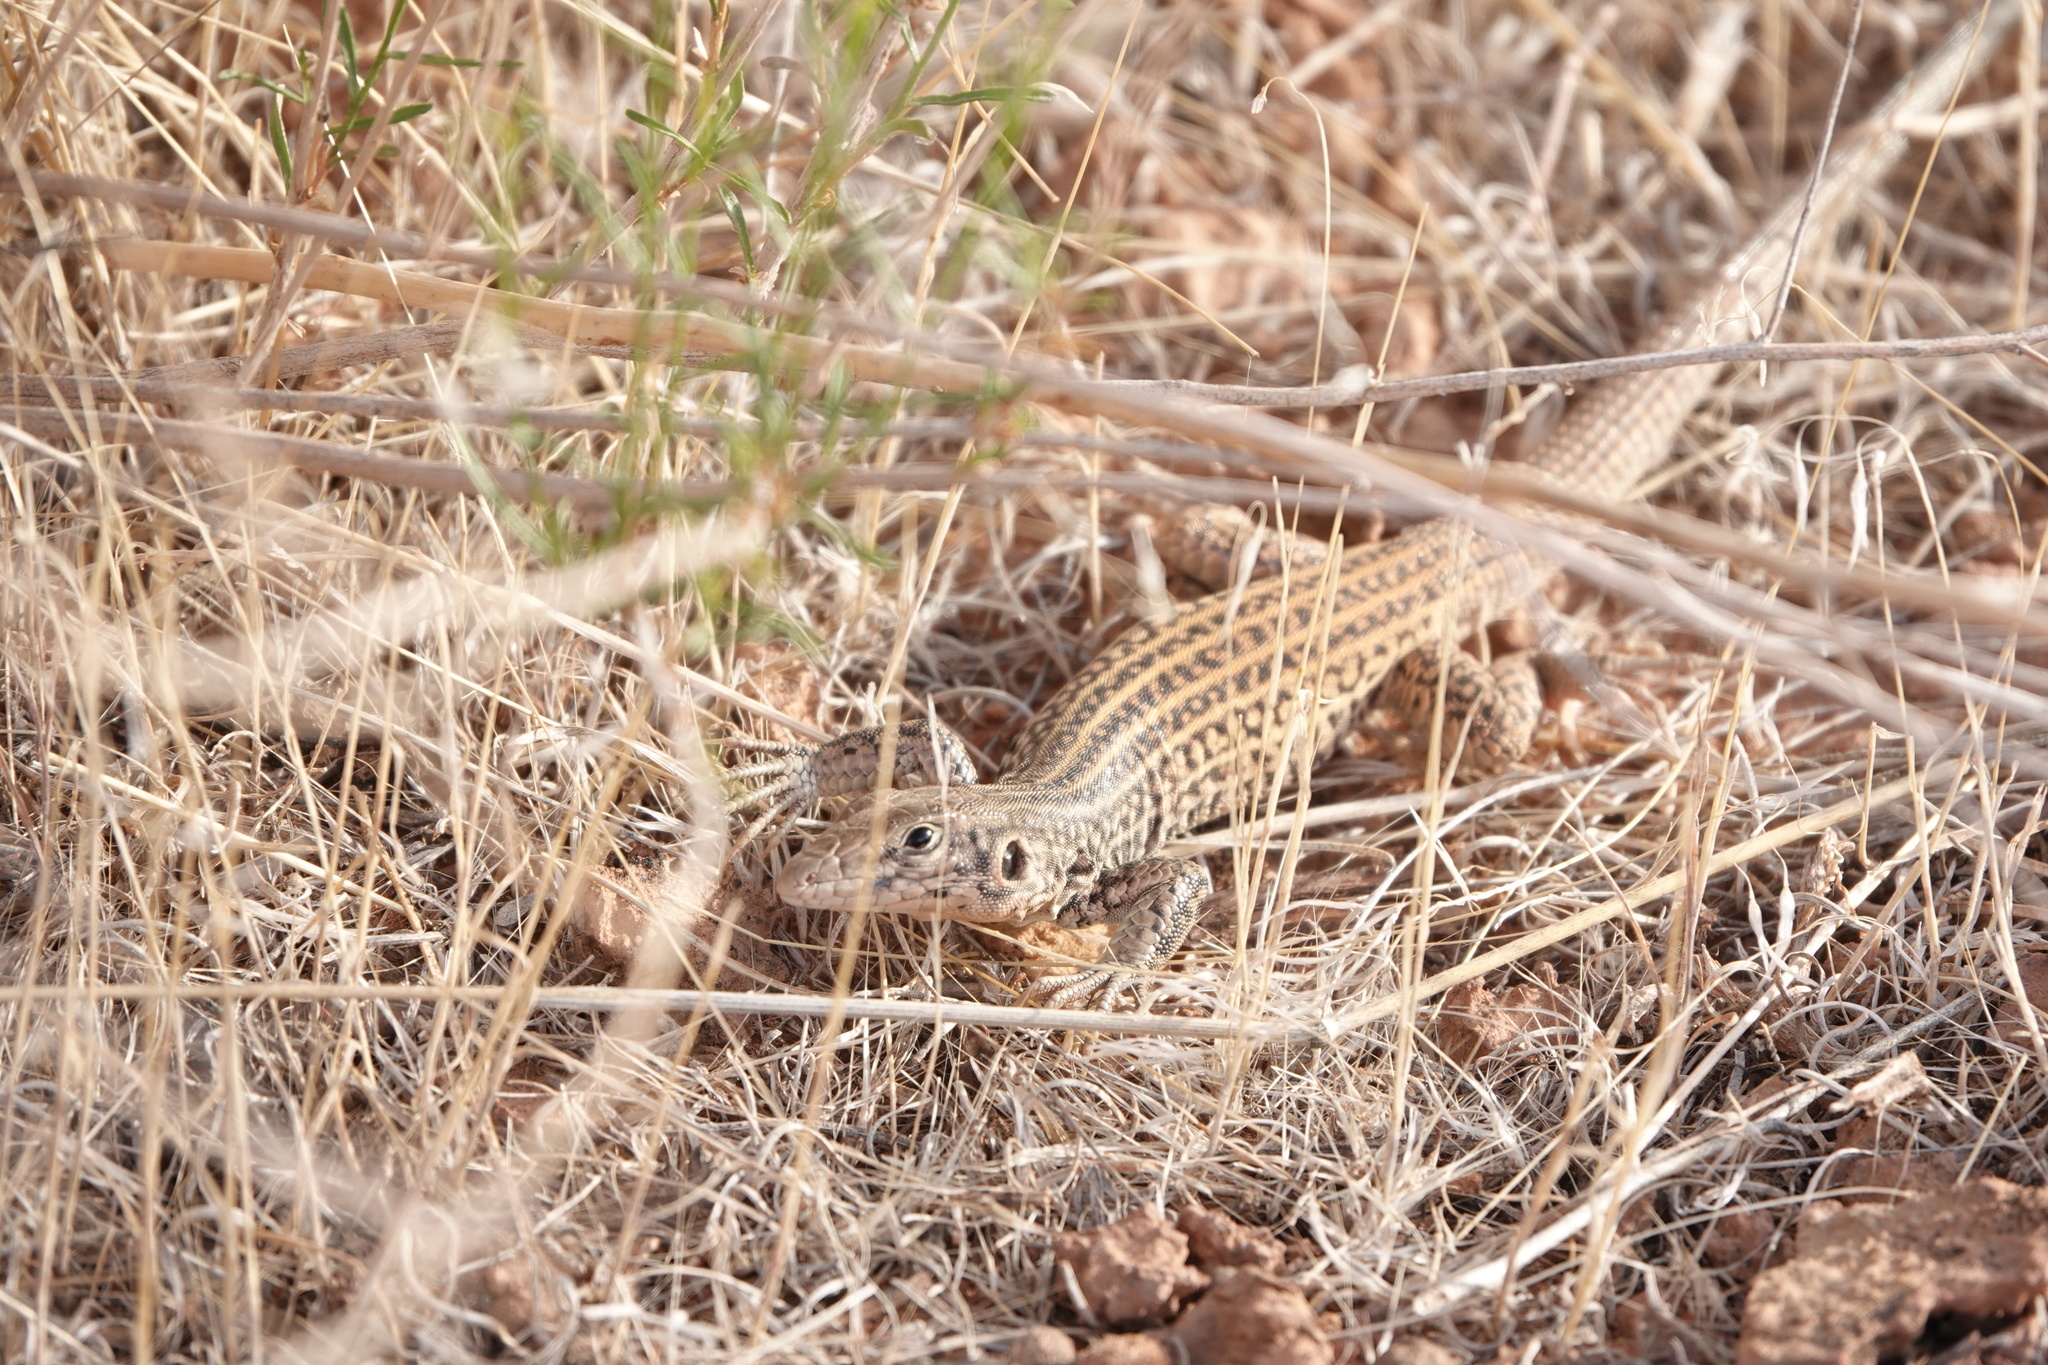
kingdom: Animalia
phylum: Chordata
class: Squamata
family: Teiidae
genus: Aspidoscelis
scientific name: Aspidoscelis tigris
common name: Tiger whiptail
